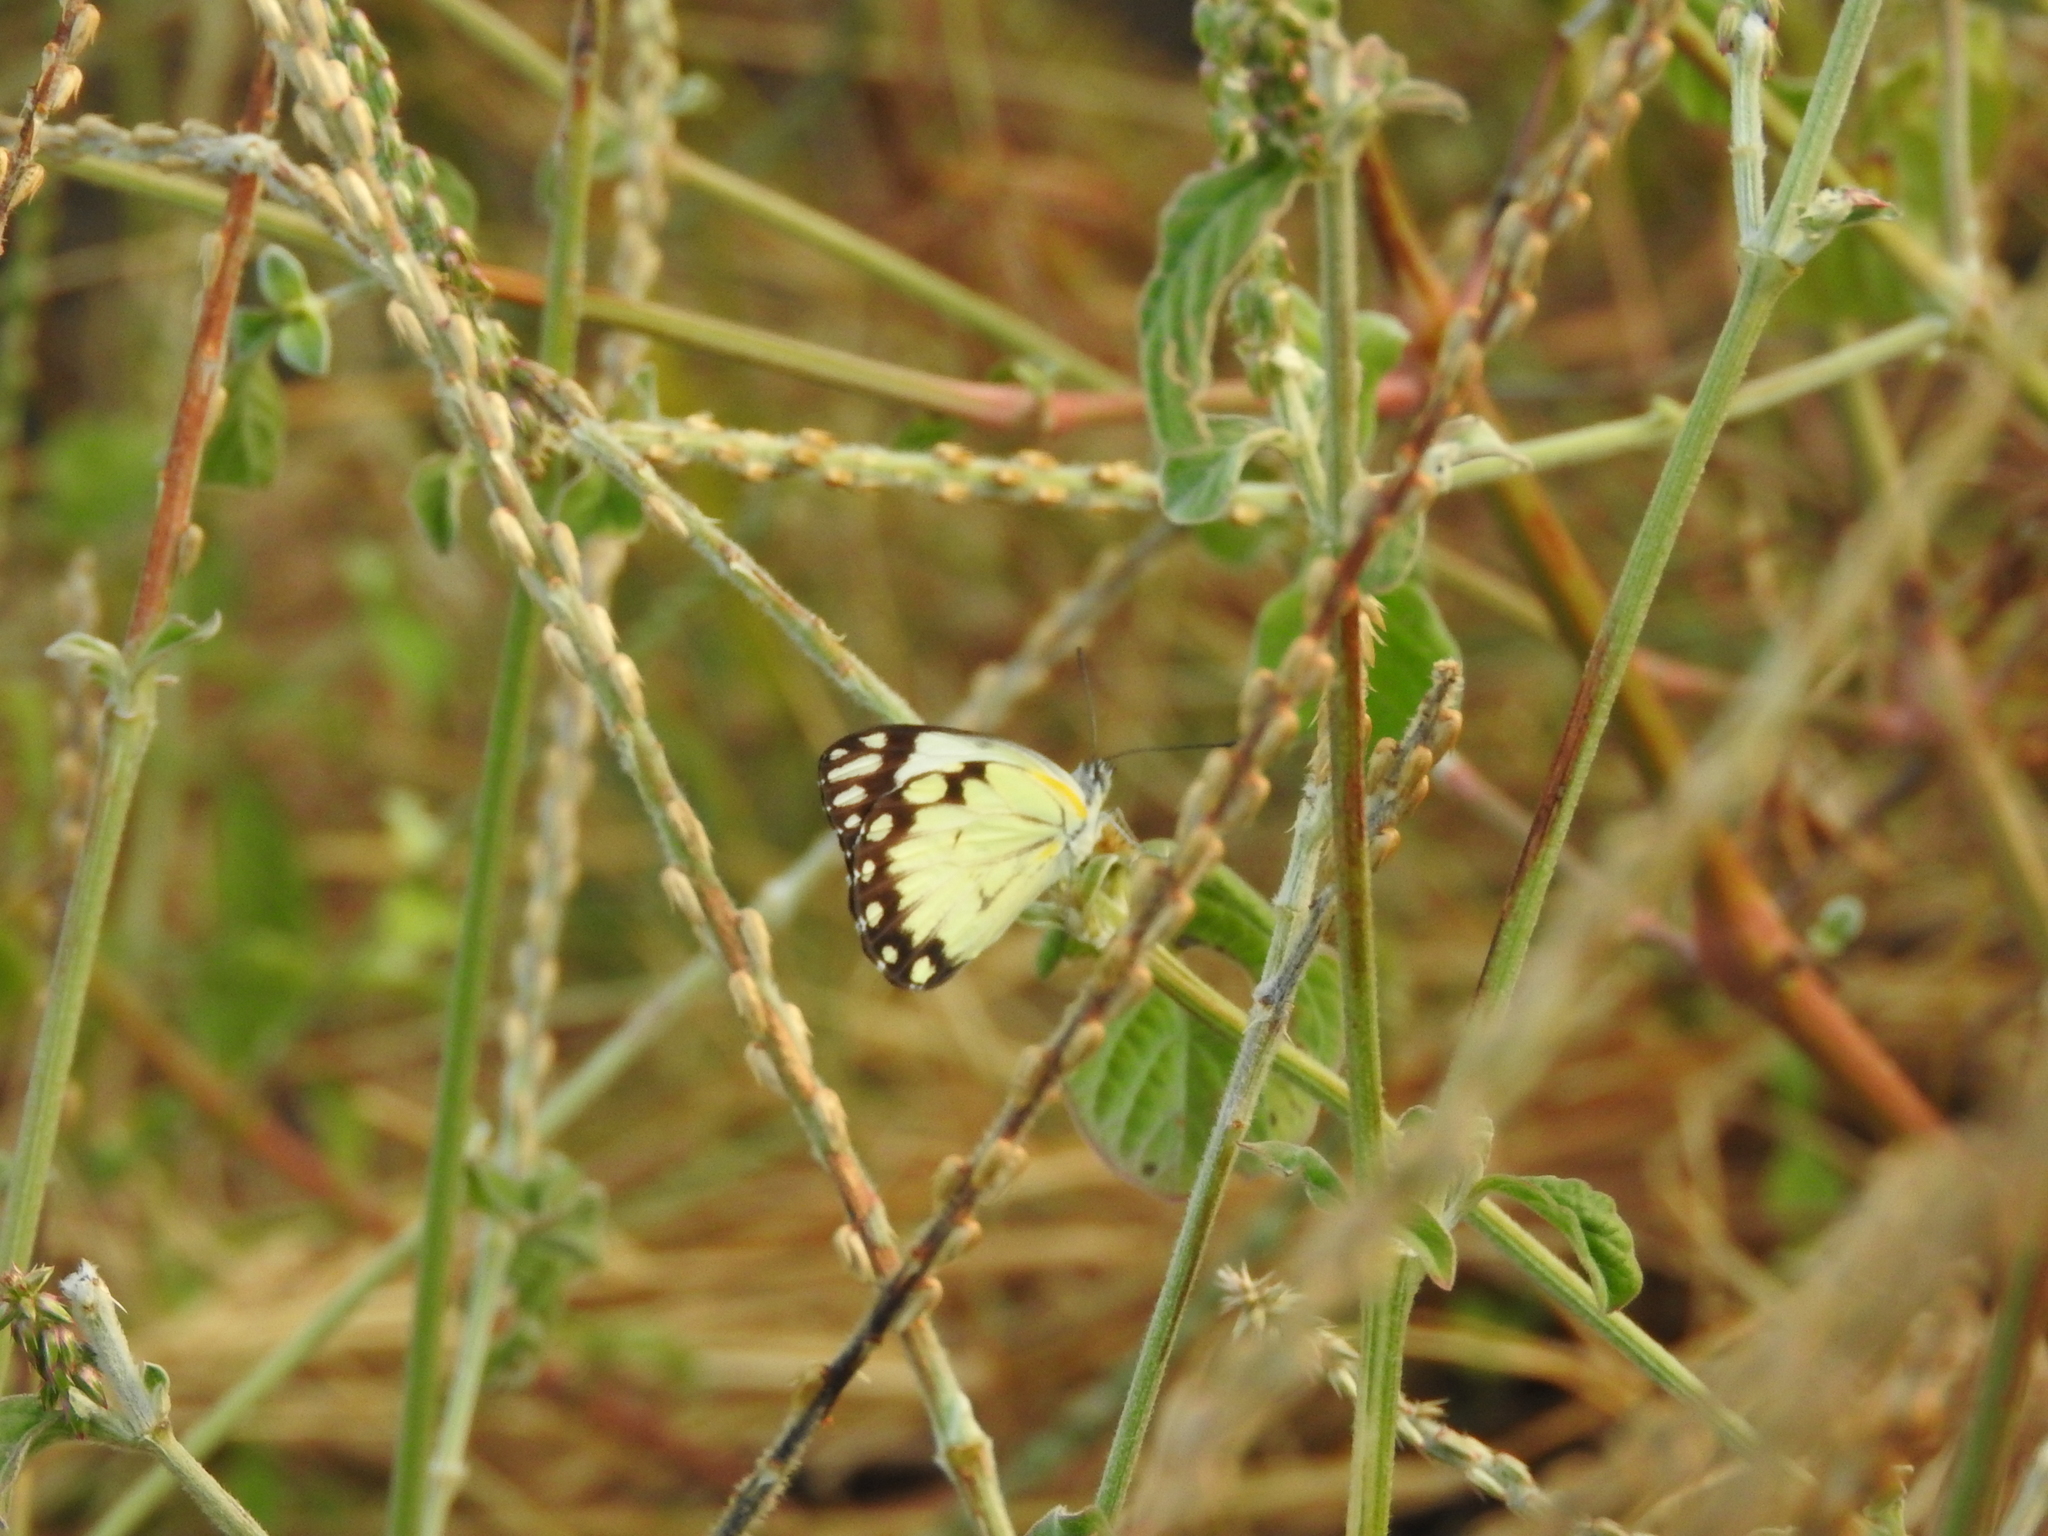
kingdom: Animalia
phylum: Arthropoda
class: Insecta
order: Lepidoptera
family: Pieridae
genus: Belenois
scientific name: Belenois creona
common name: African caper white
